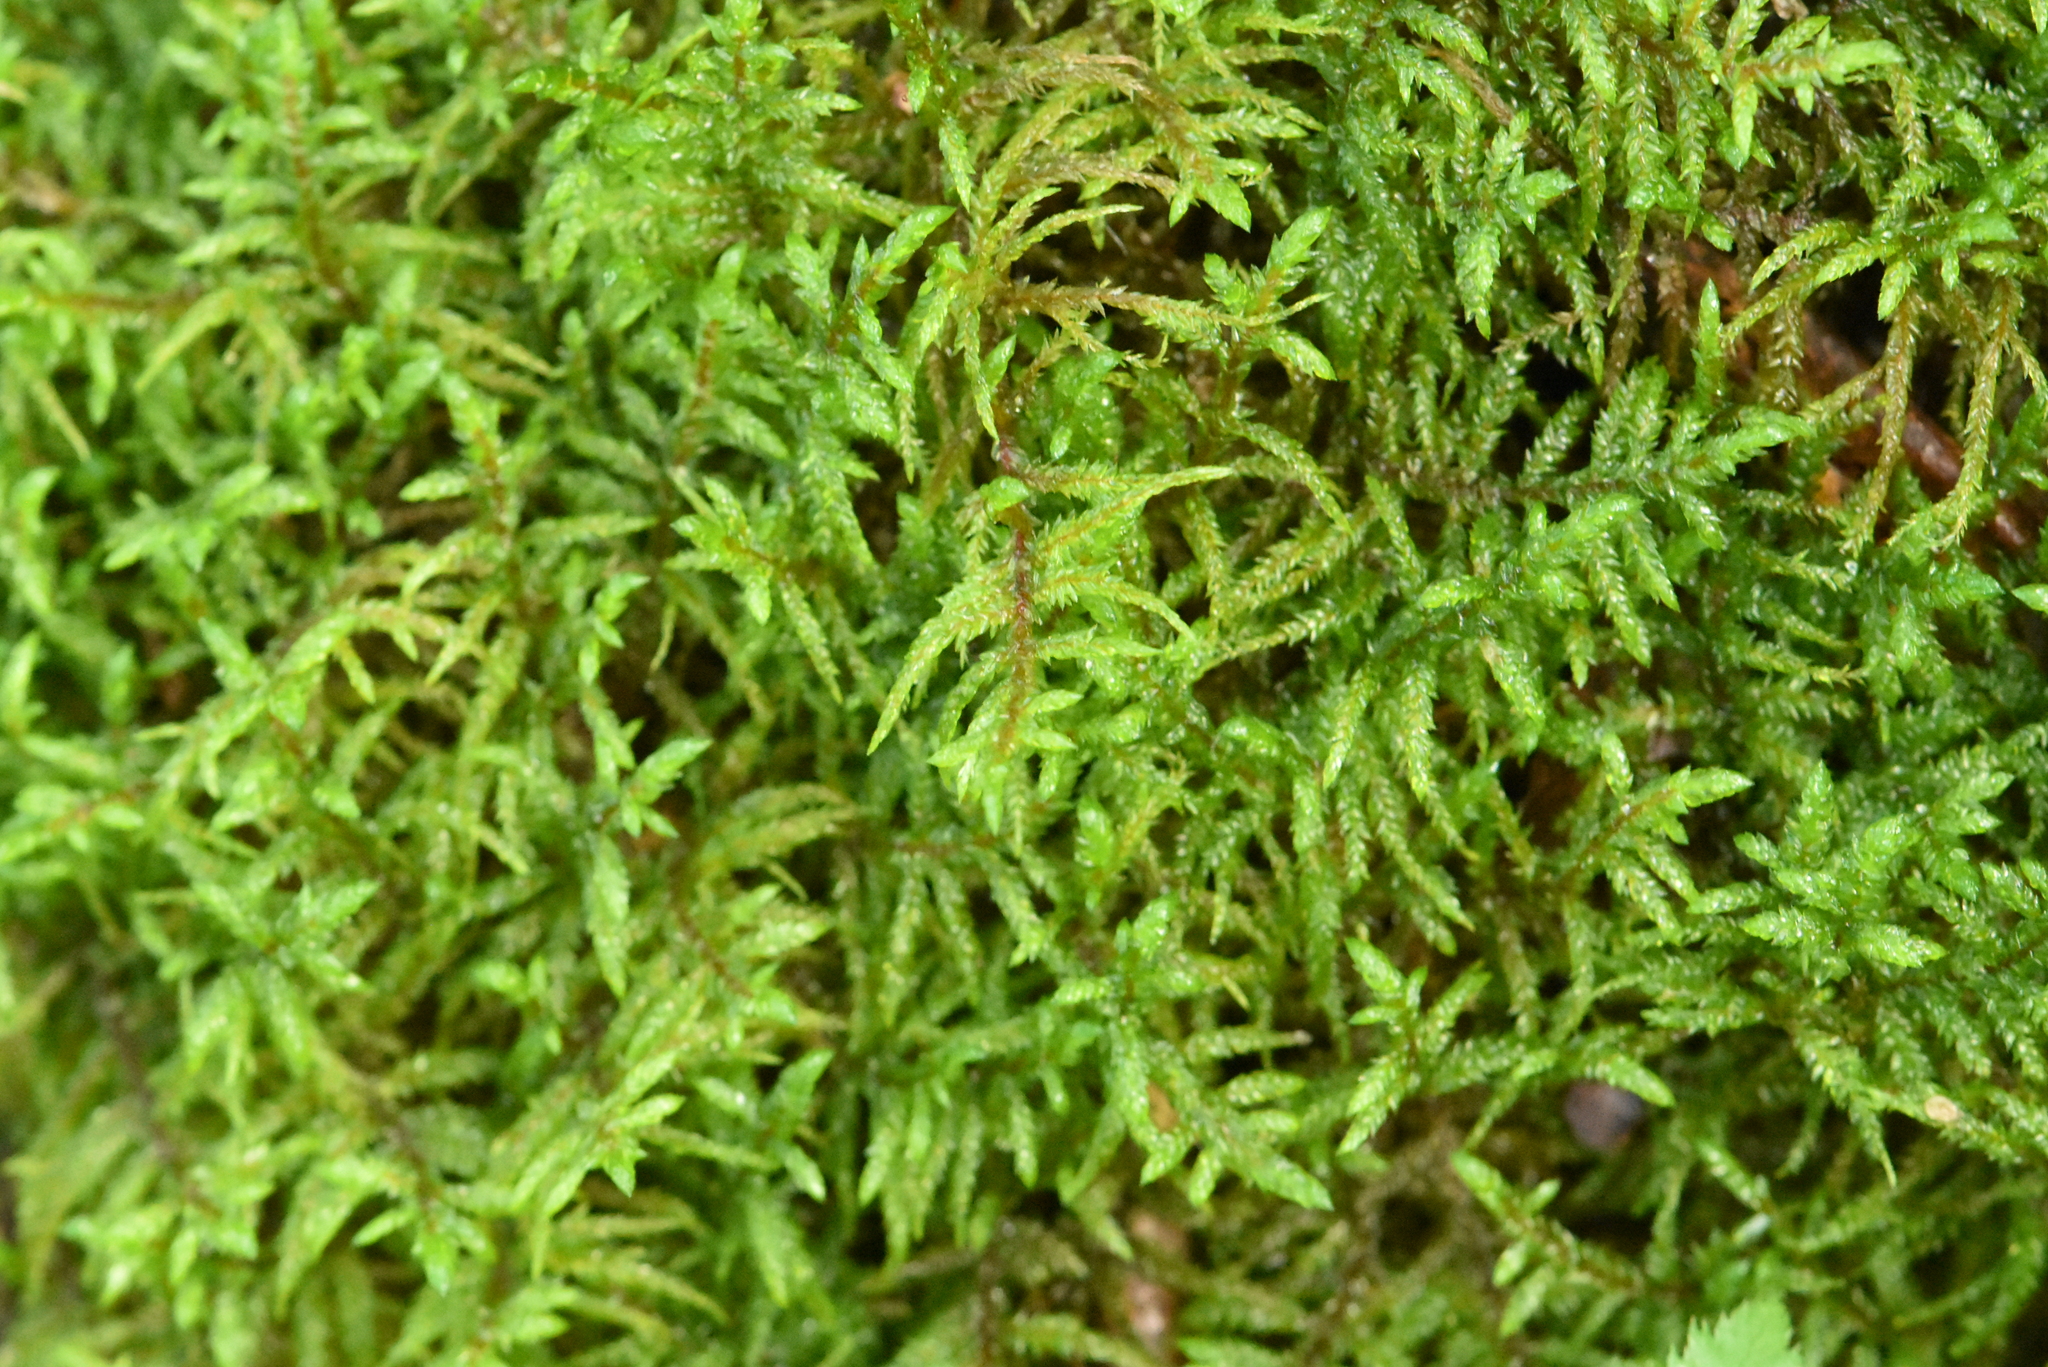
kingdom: Plantae
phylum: Bryophyta
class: Bryopsida
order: Hypnales
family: Hylocomiaceae
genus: Pleurozium
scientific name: Pleurozium schreberi
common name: Red-stemmed feather moss
